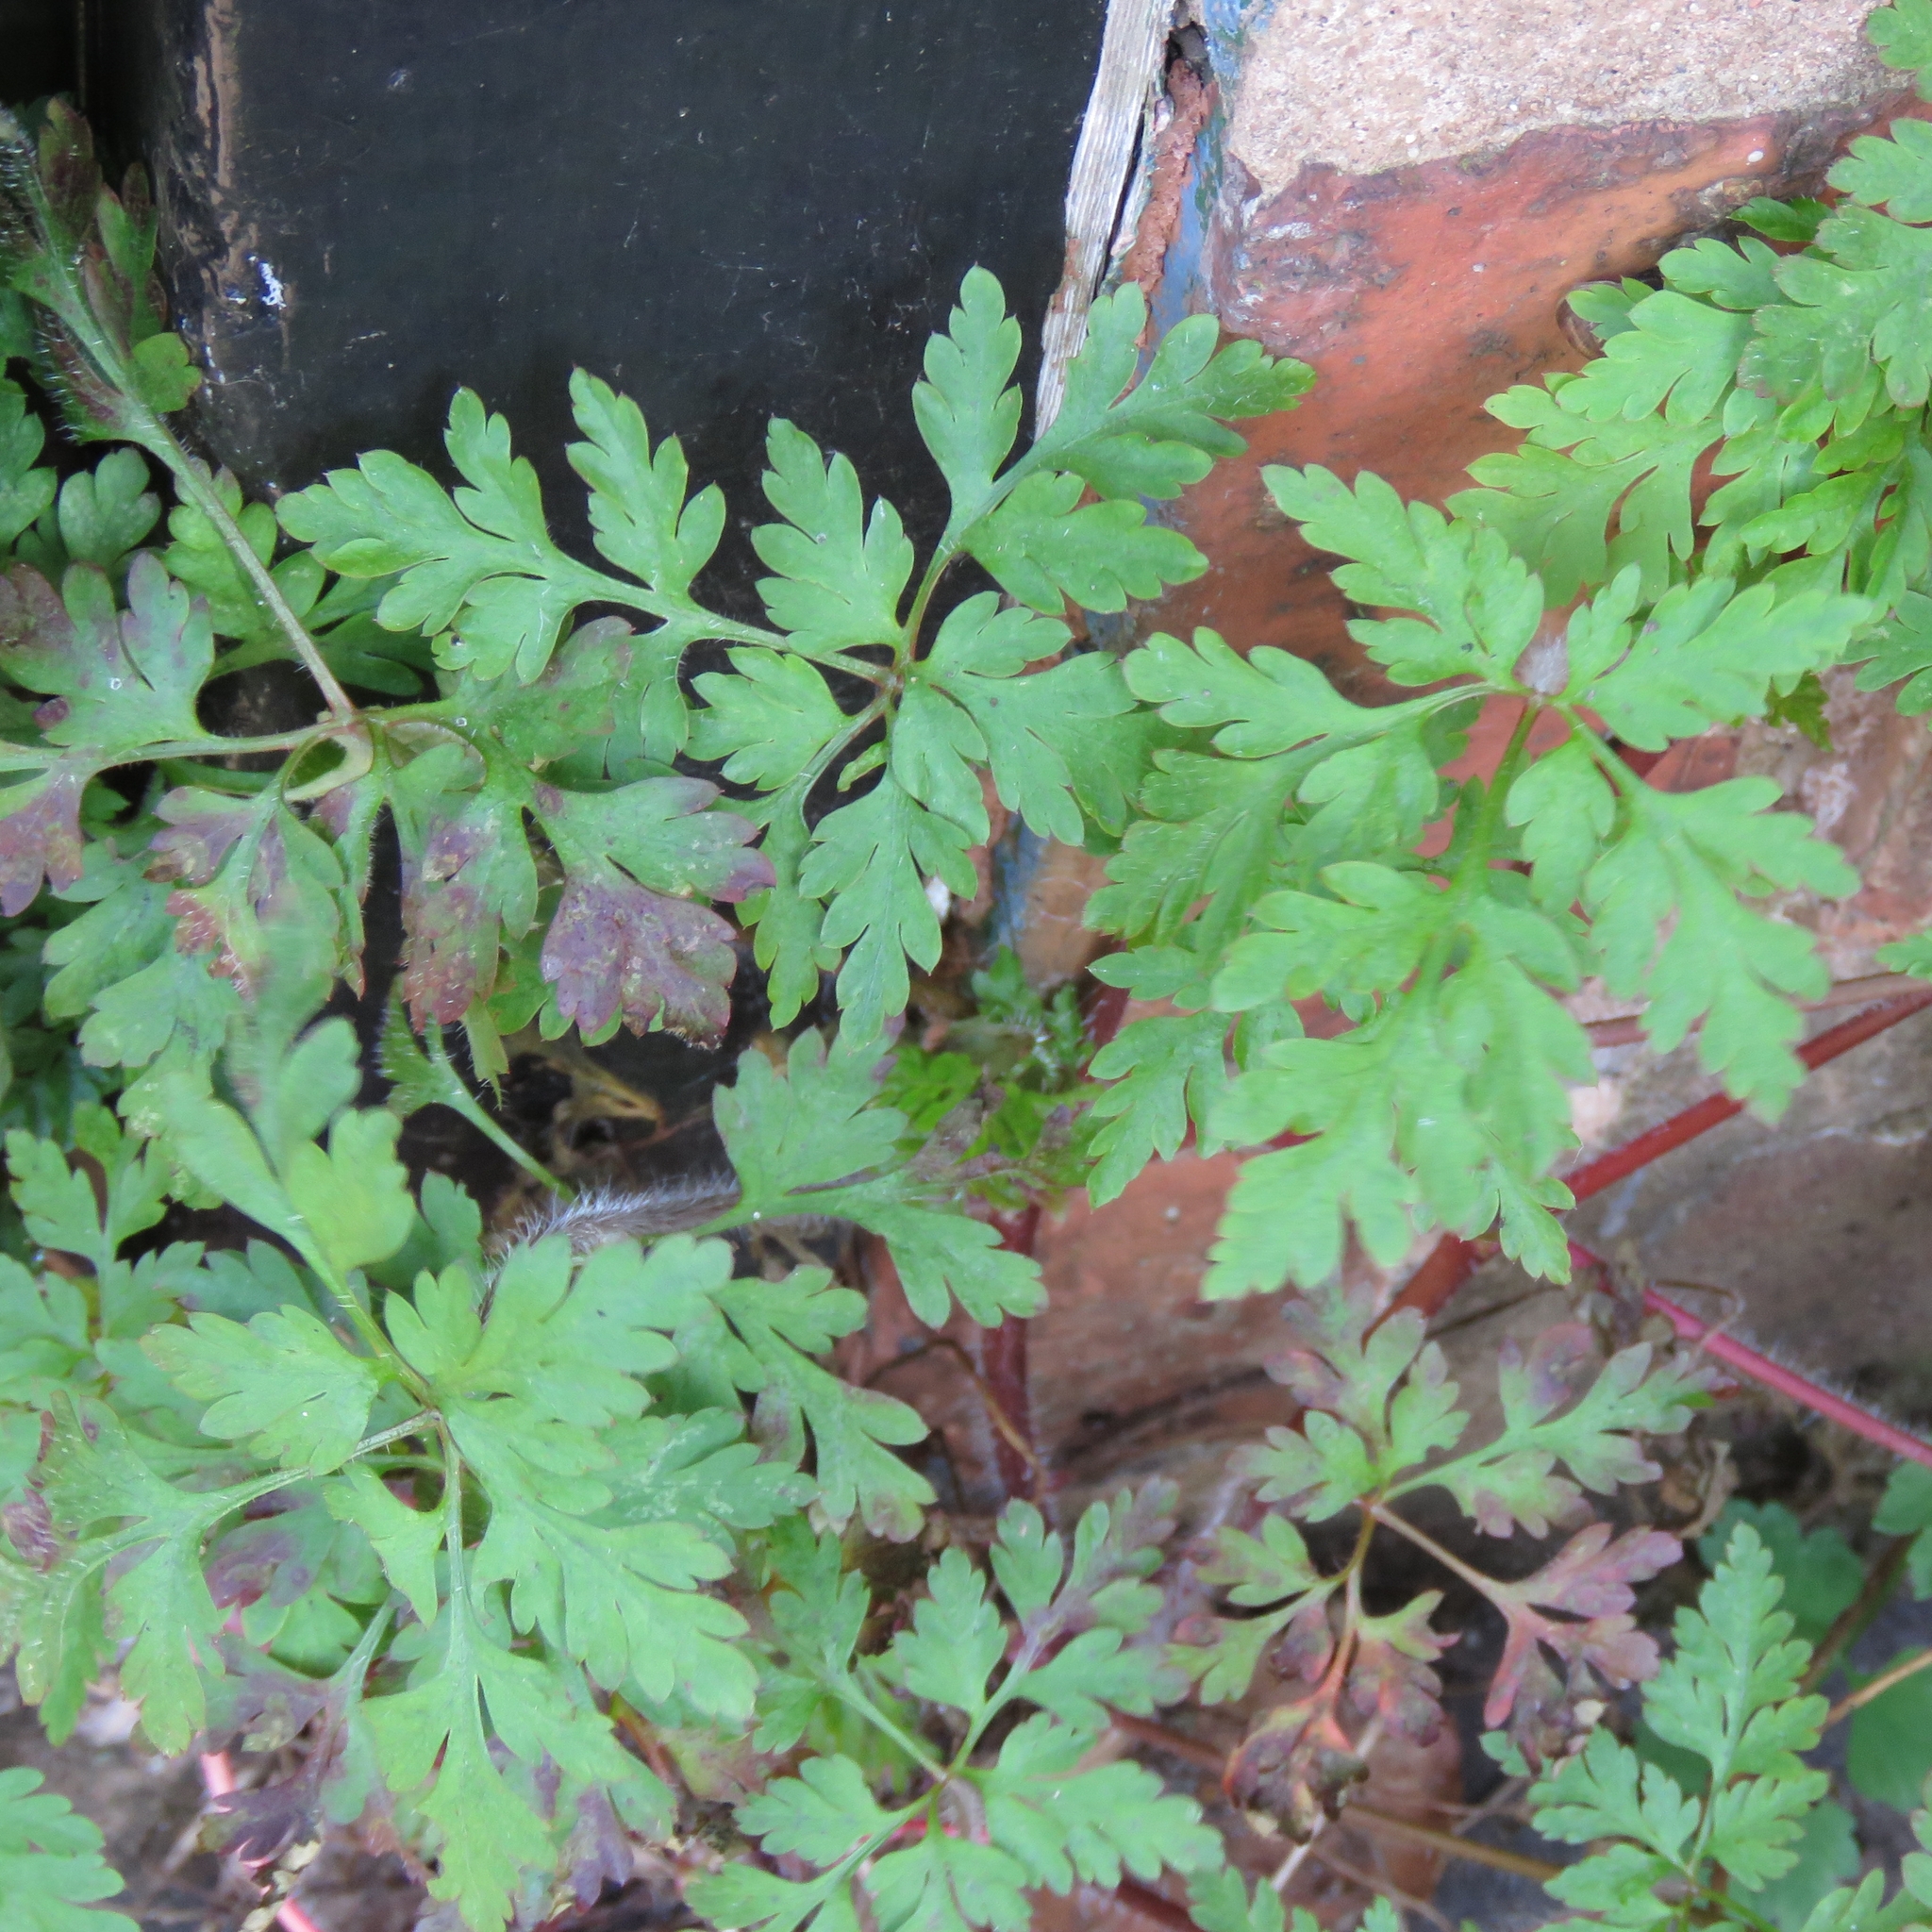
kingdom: Plantae
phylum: Tracheophyta
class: Magnoliopsida
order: Geraniales
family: Geraniaceae
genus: Geranium
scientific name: Geranium robertianum
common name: Herb-robert
